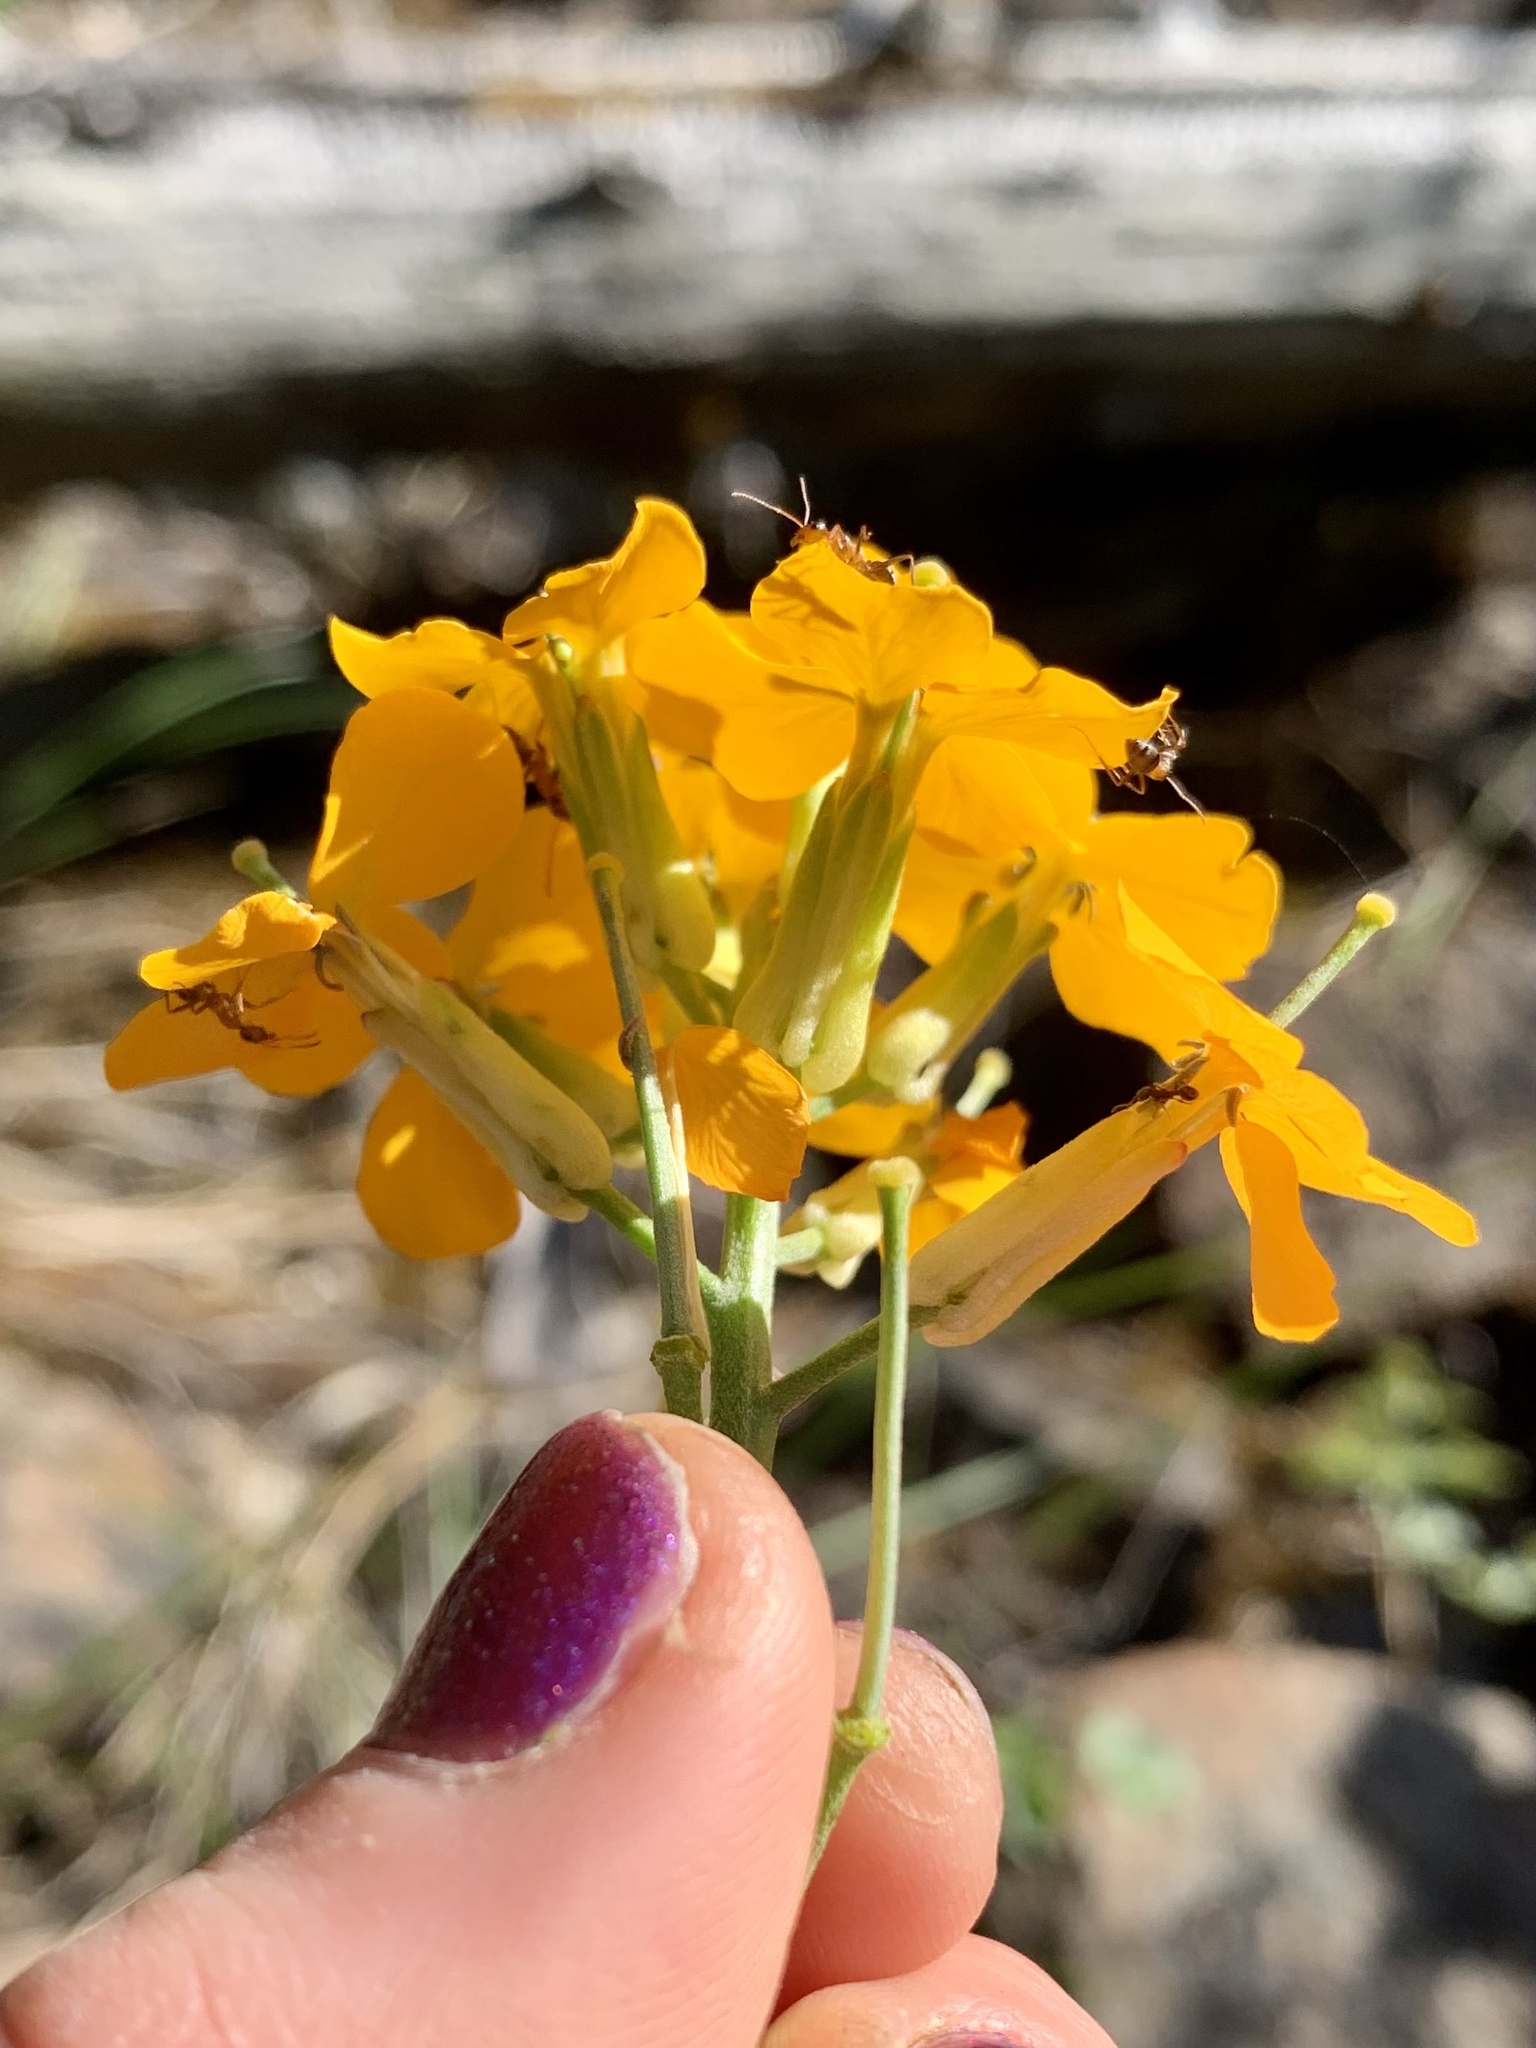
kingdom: Plantae
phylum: Tracheophyta
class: Magnoliopsida
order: Brassicales
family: Brassicaceae
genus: Erysimum
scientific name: Erysimum capitatum
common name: Western wallflower
